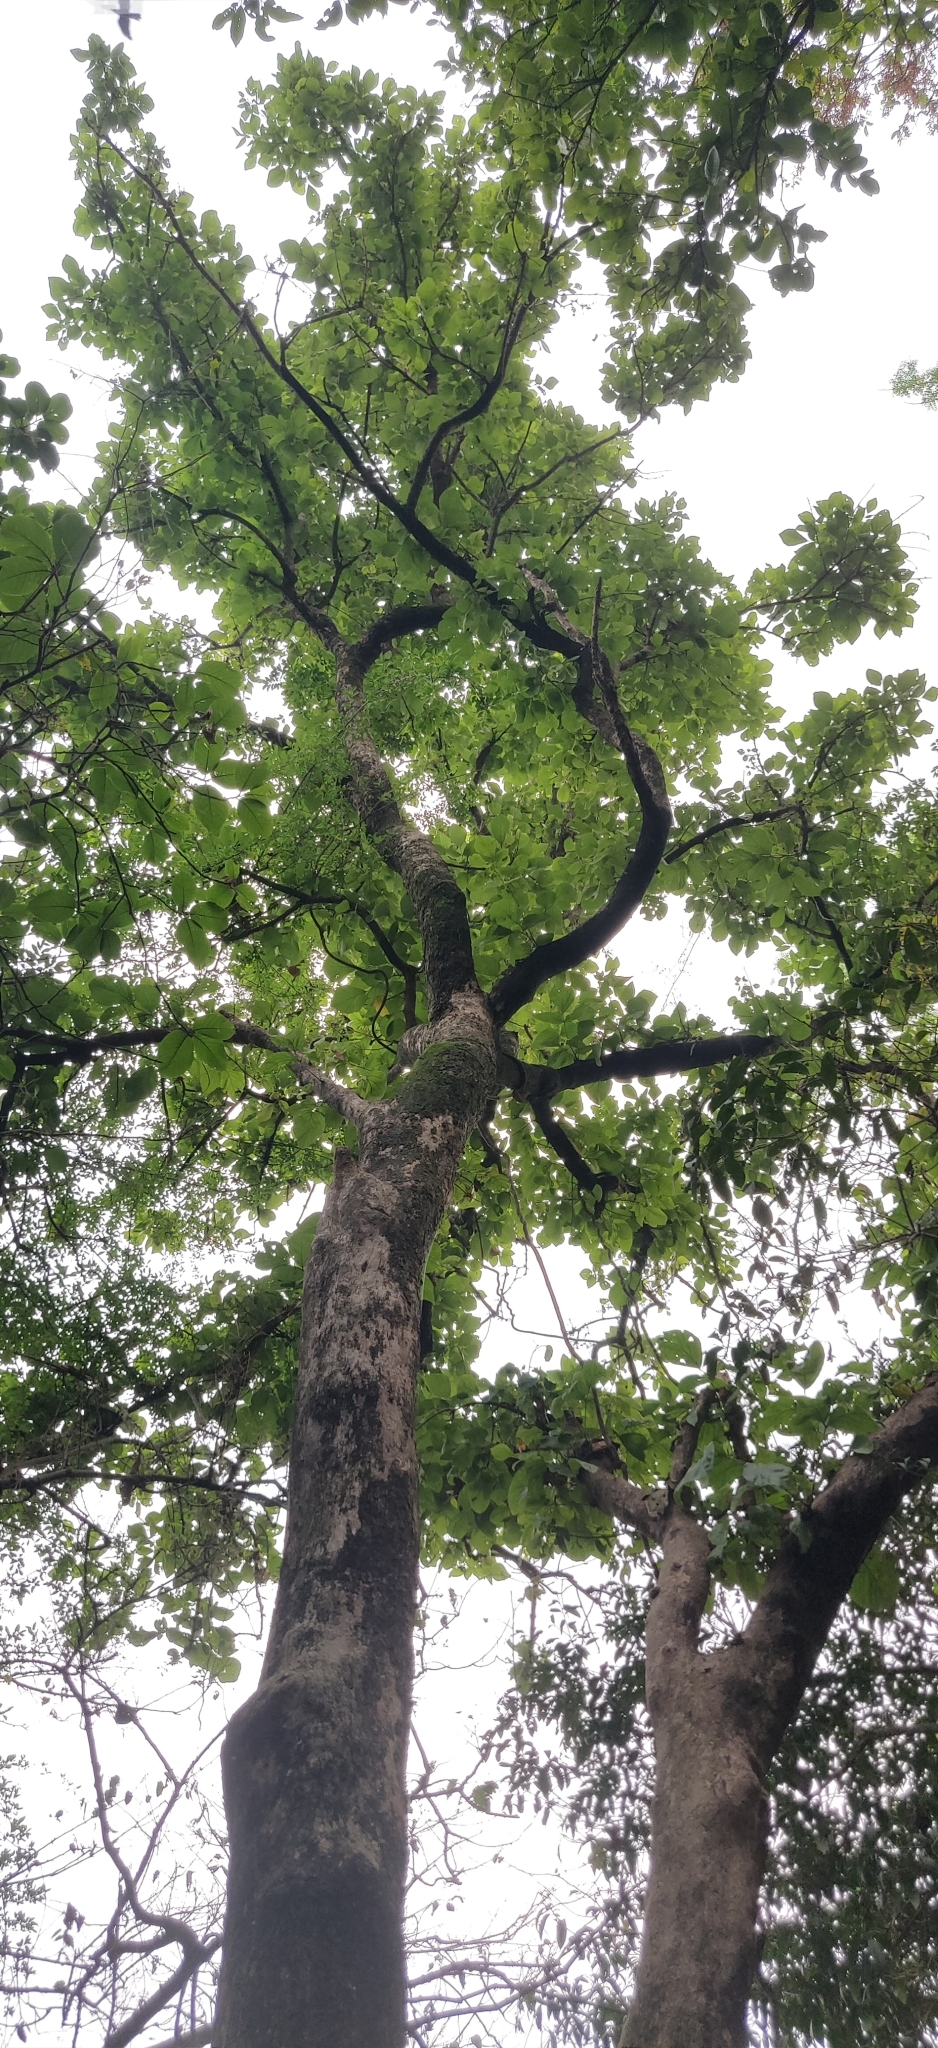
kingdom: Plantae
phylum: Tracheophyta
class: Magnoliopsida
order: Fabales
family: Fabaceae
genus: Butea
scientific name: Butea monosperma
